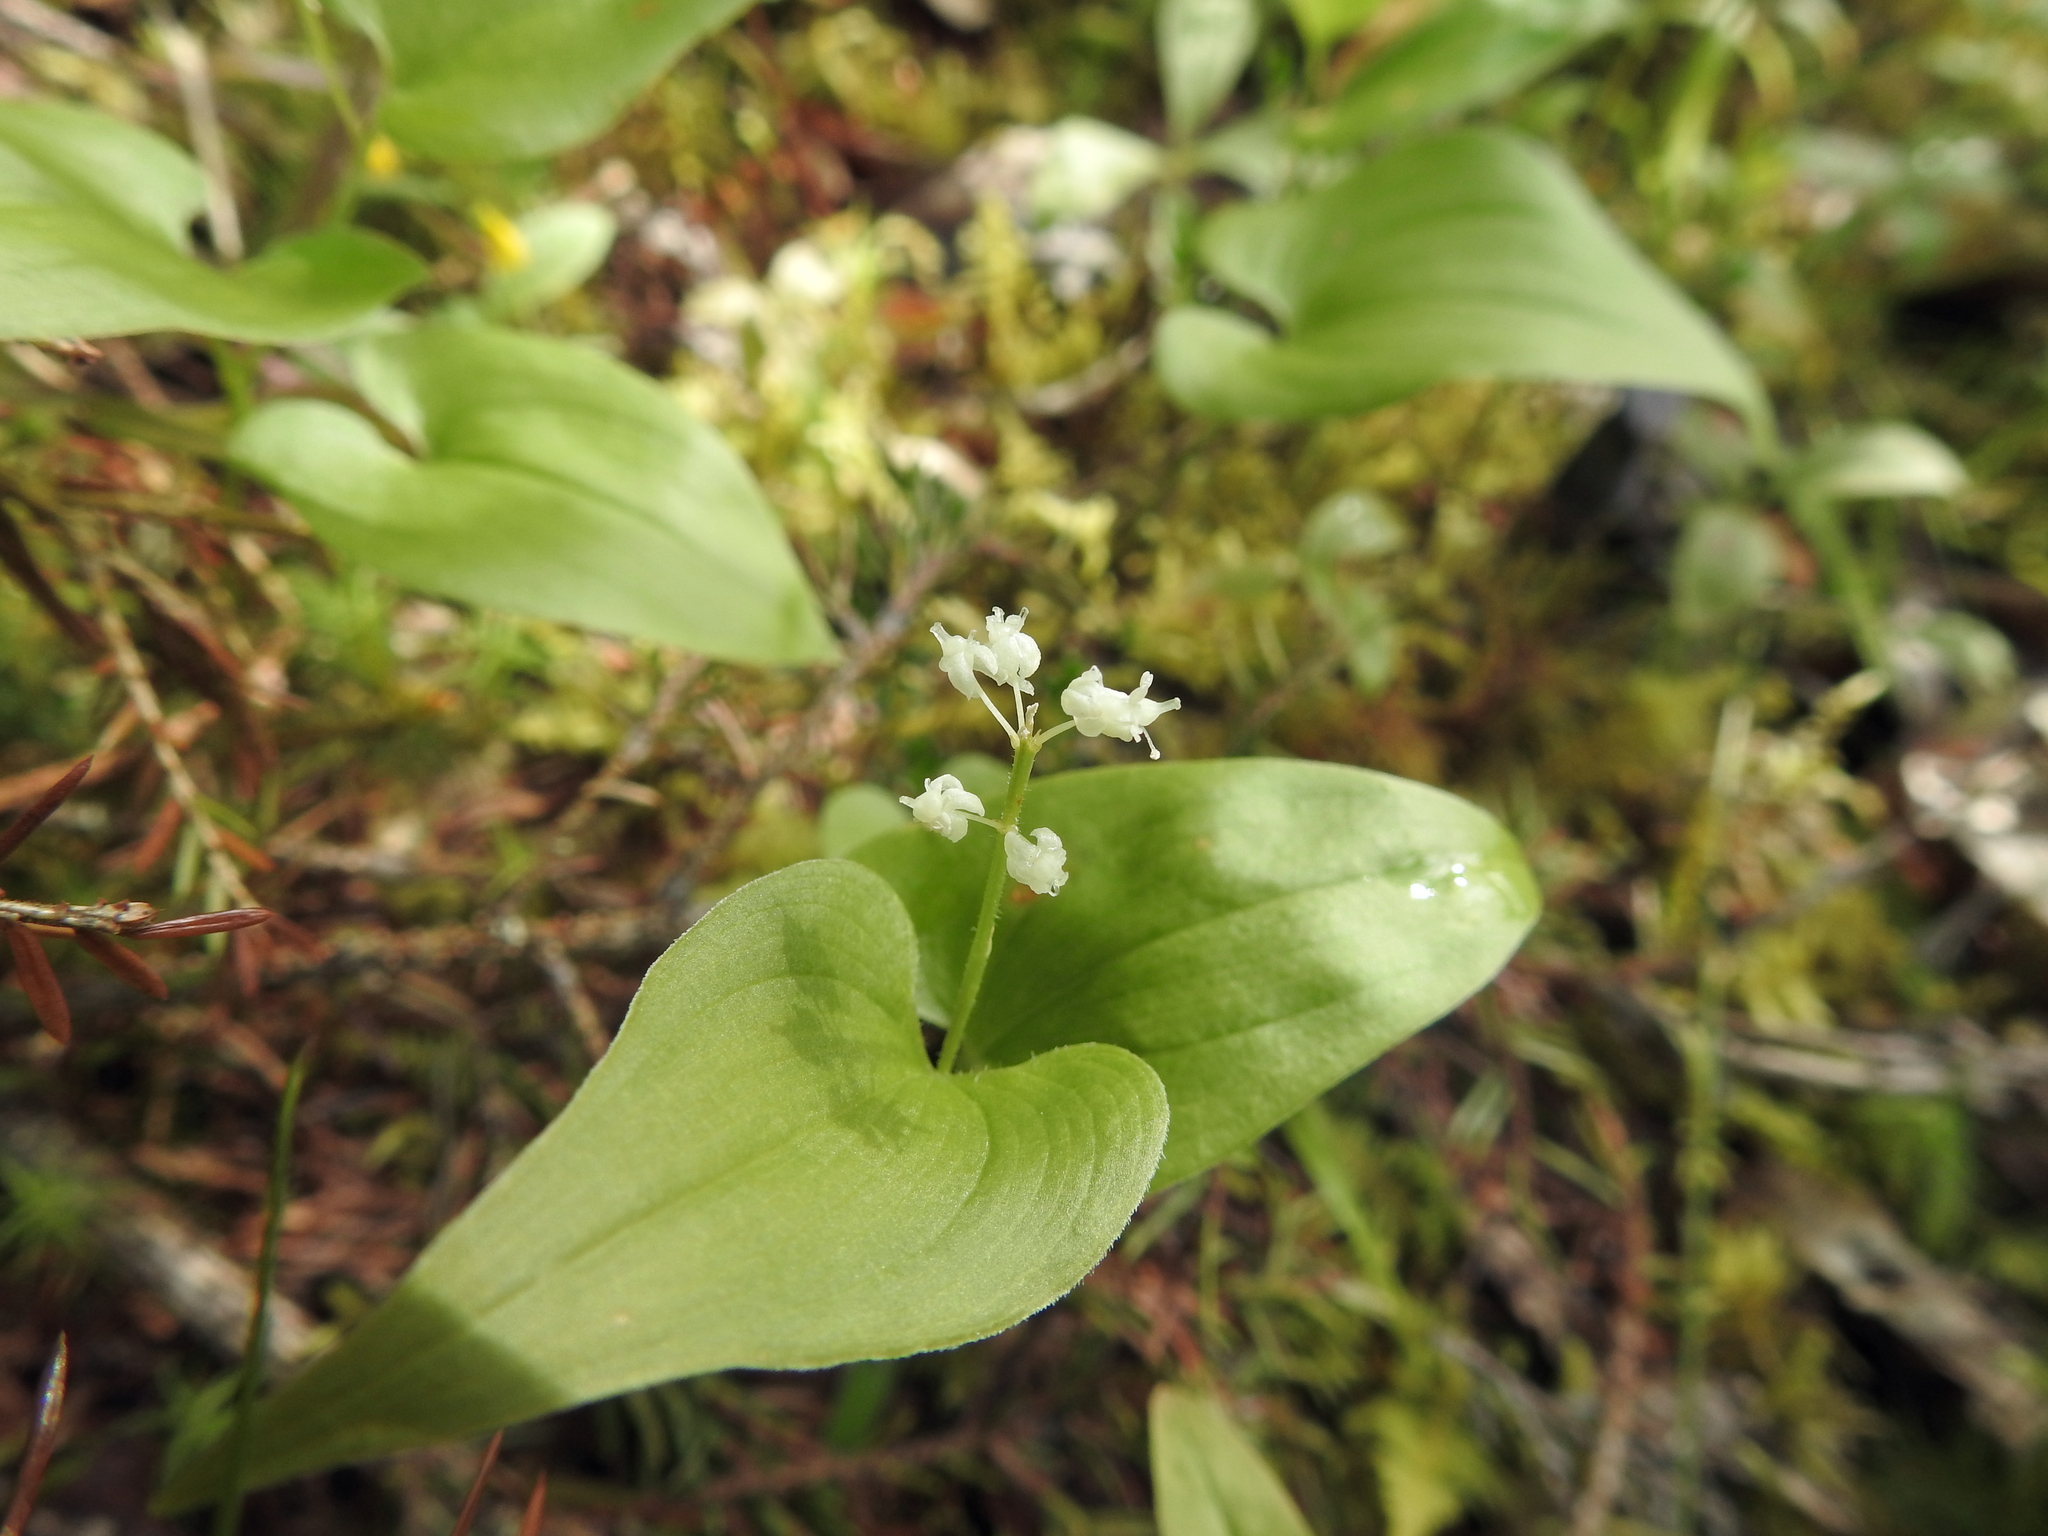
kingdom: Plantae
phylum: Tracheophyta
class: Liliopsida
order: Asparagales
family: Asparagaceae
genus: Maianthemum
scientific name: Maianthemum bifolium
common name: May lily
